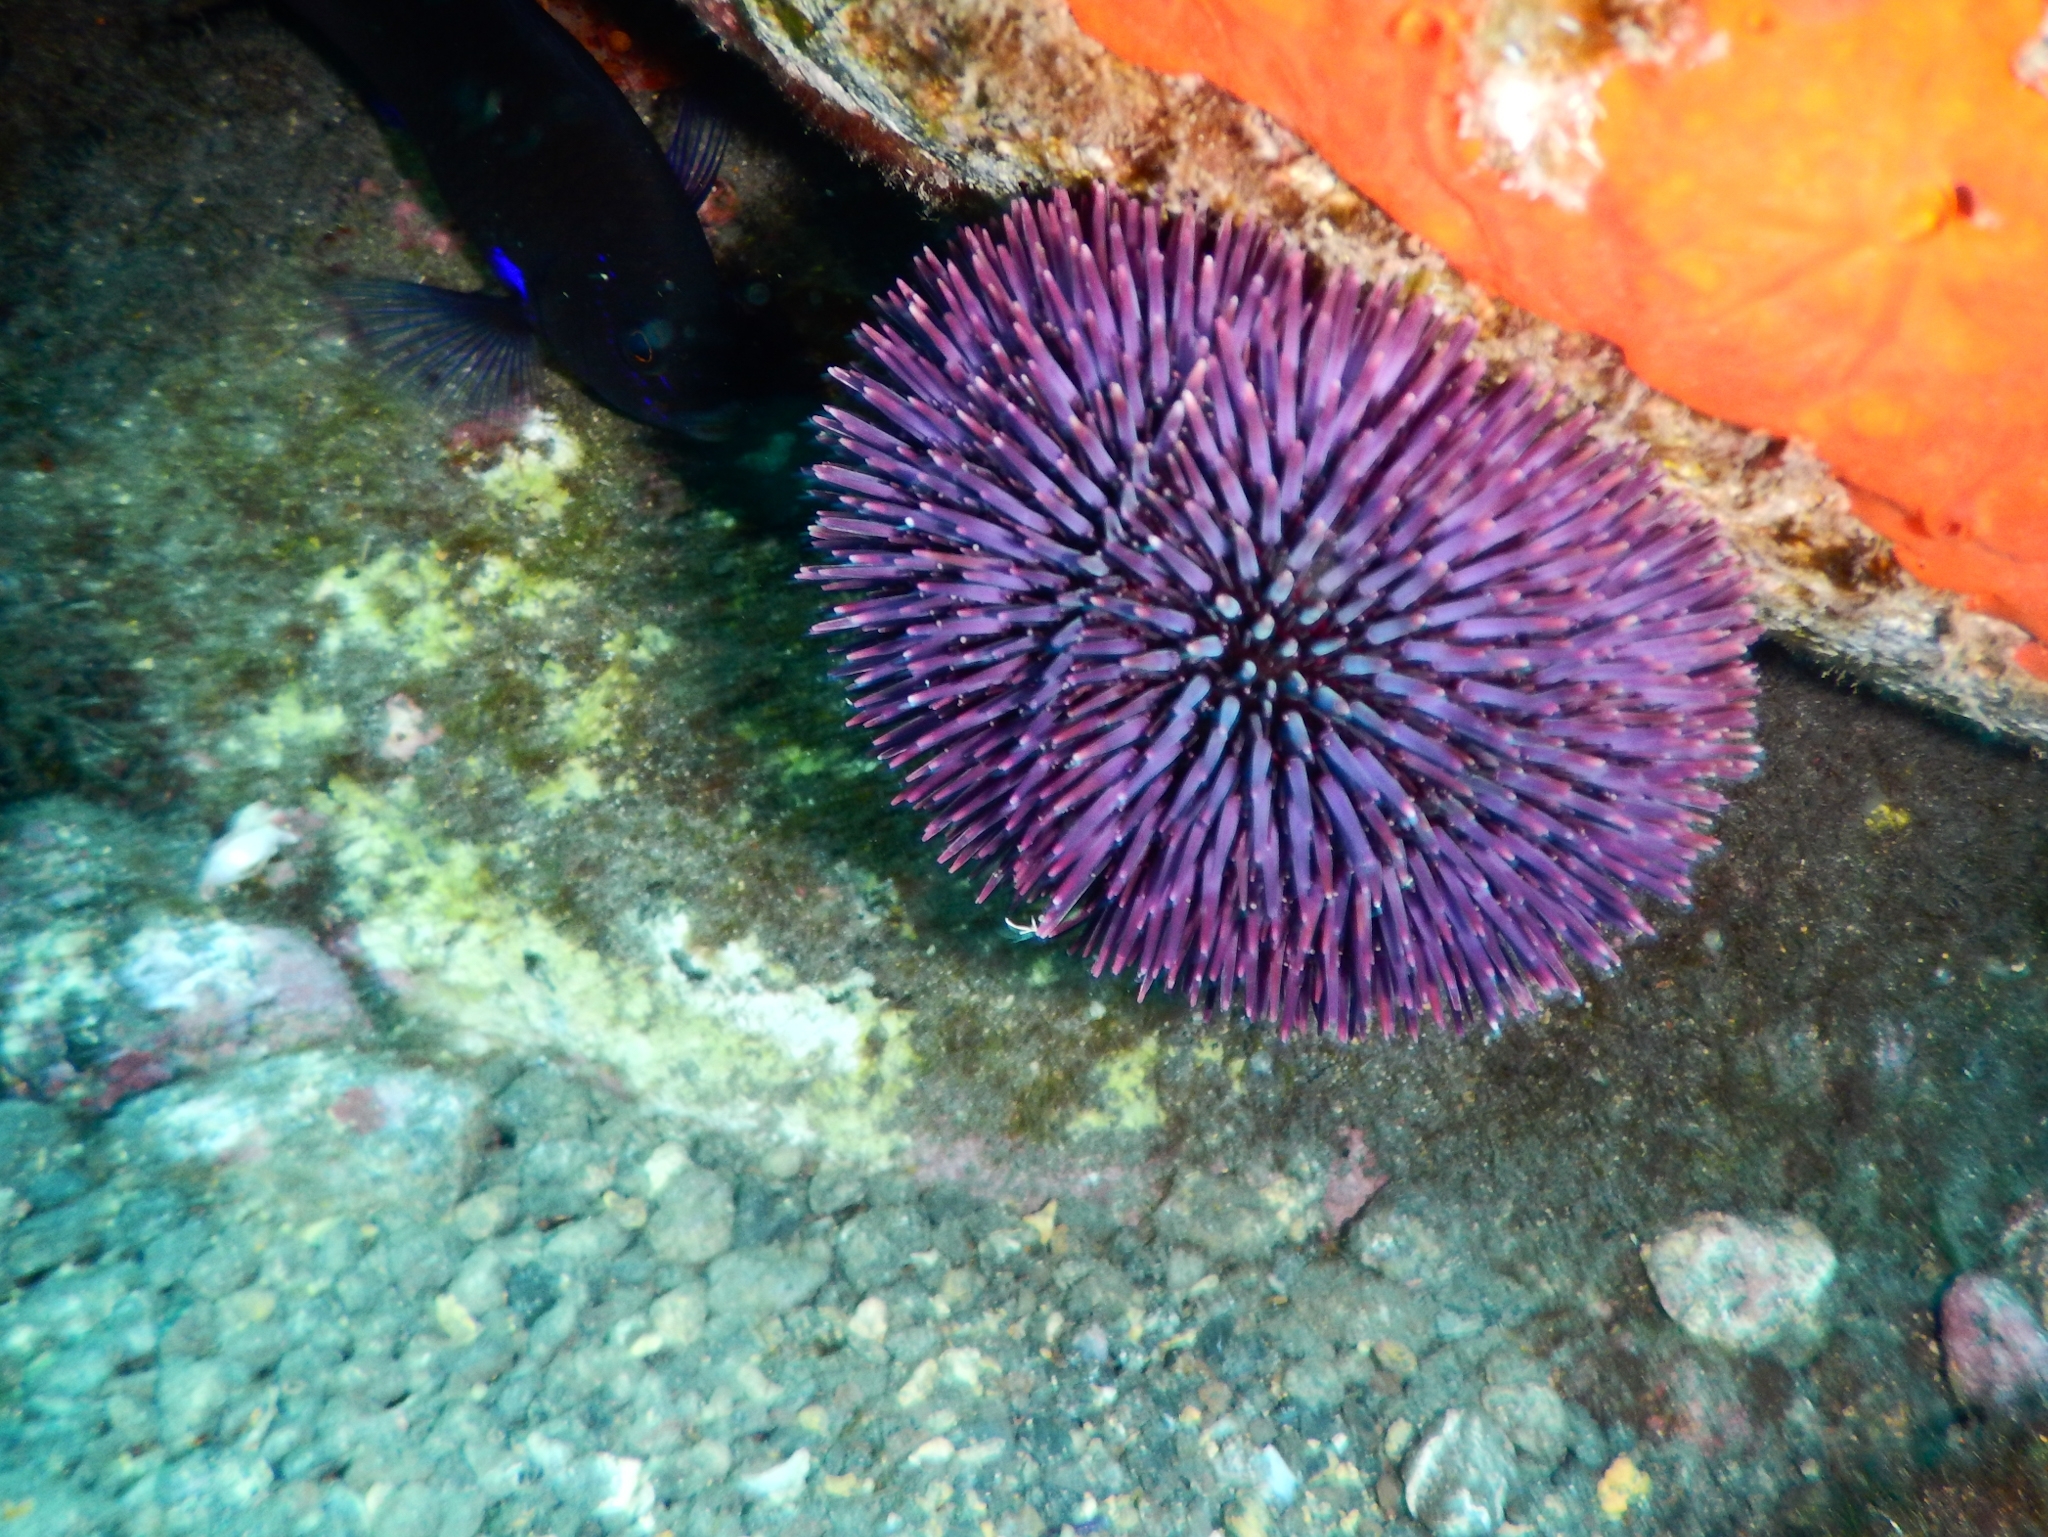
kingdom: Animalia
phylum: Echinodermata
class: Echinoidea
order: Camarodonta
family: Toxopneustidae
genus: Sphaerechinus
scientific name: Sphaerechinus granularis
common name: Violet sea urchin
